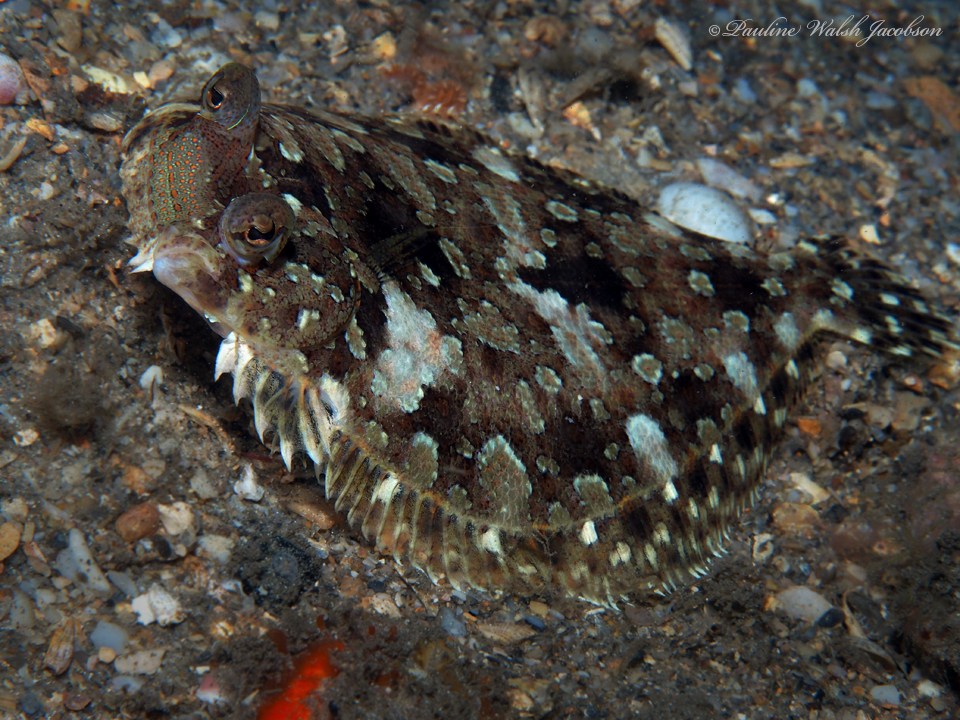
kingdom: Animalia
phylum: Chordata
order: Pleuronectiformes
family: Bothidae
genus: Bothus
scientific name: Bothus ocellatus
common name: Eyed flounder
